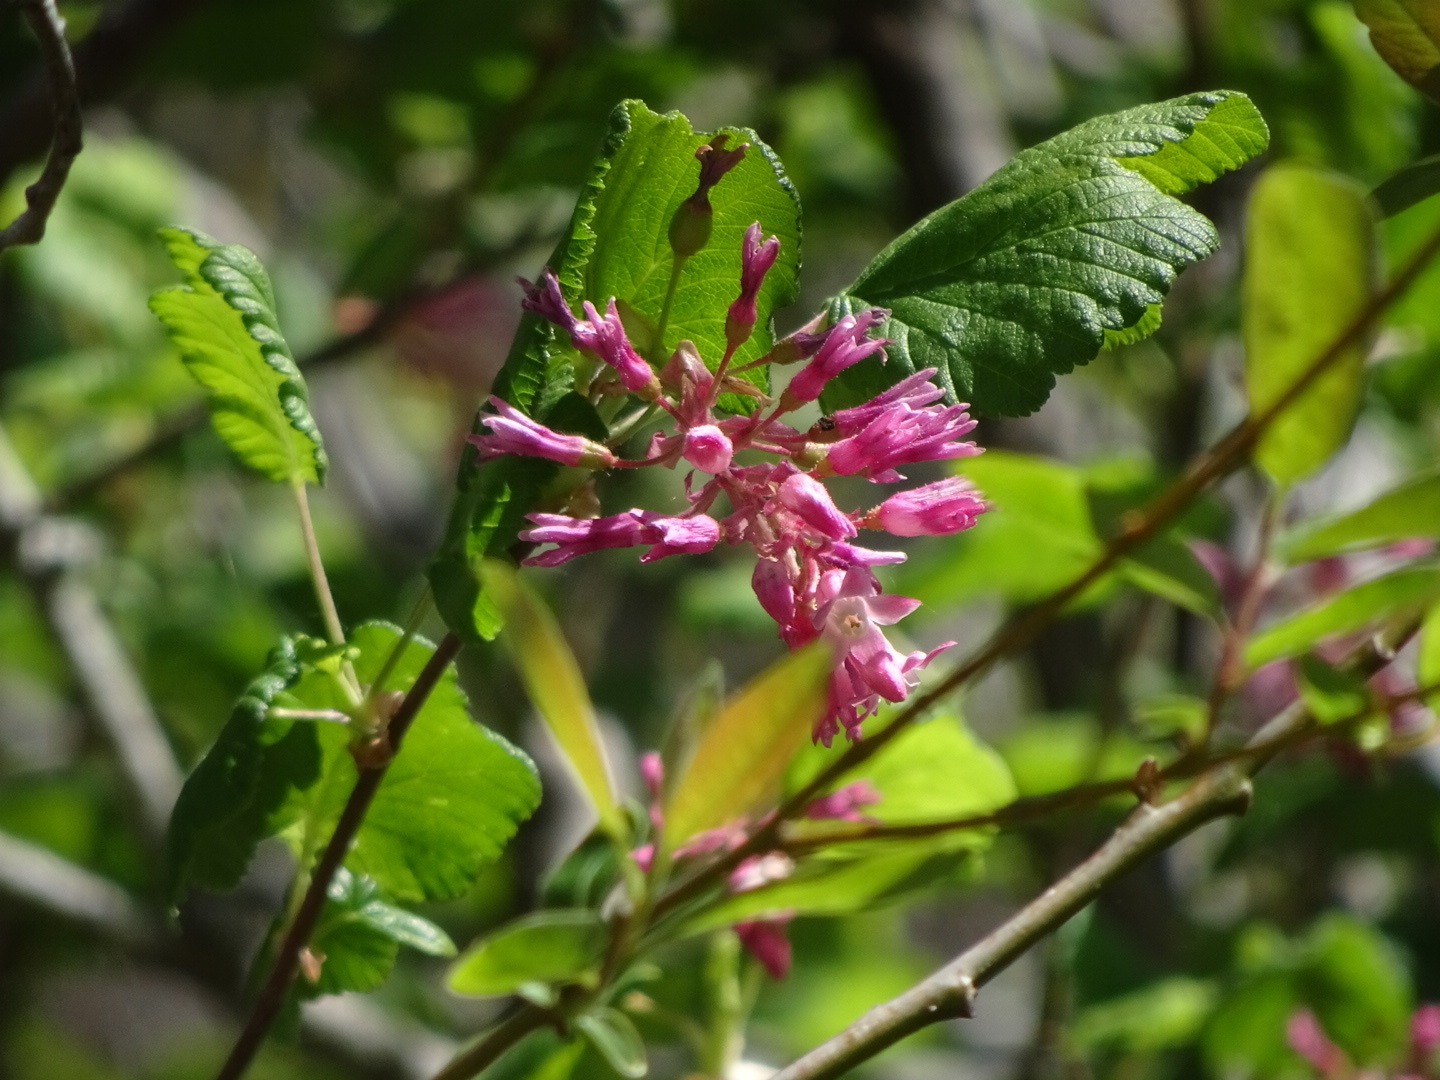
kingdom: Plantae
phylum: Tracheophyta
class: Magnoliopsida
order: Saxifragales
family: Grossulariaceae
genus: Ribes
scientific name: Ribes sanguineum
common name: Flowering currant
